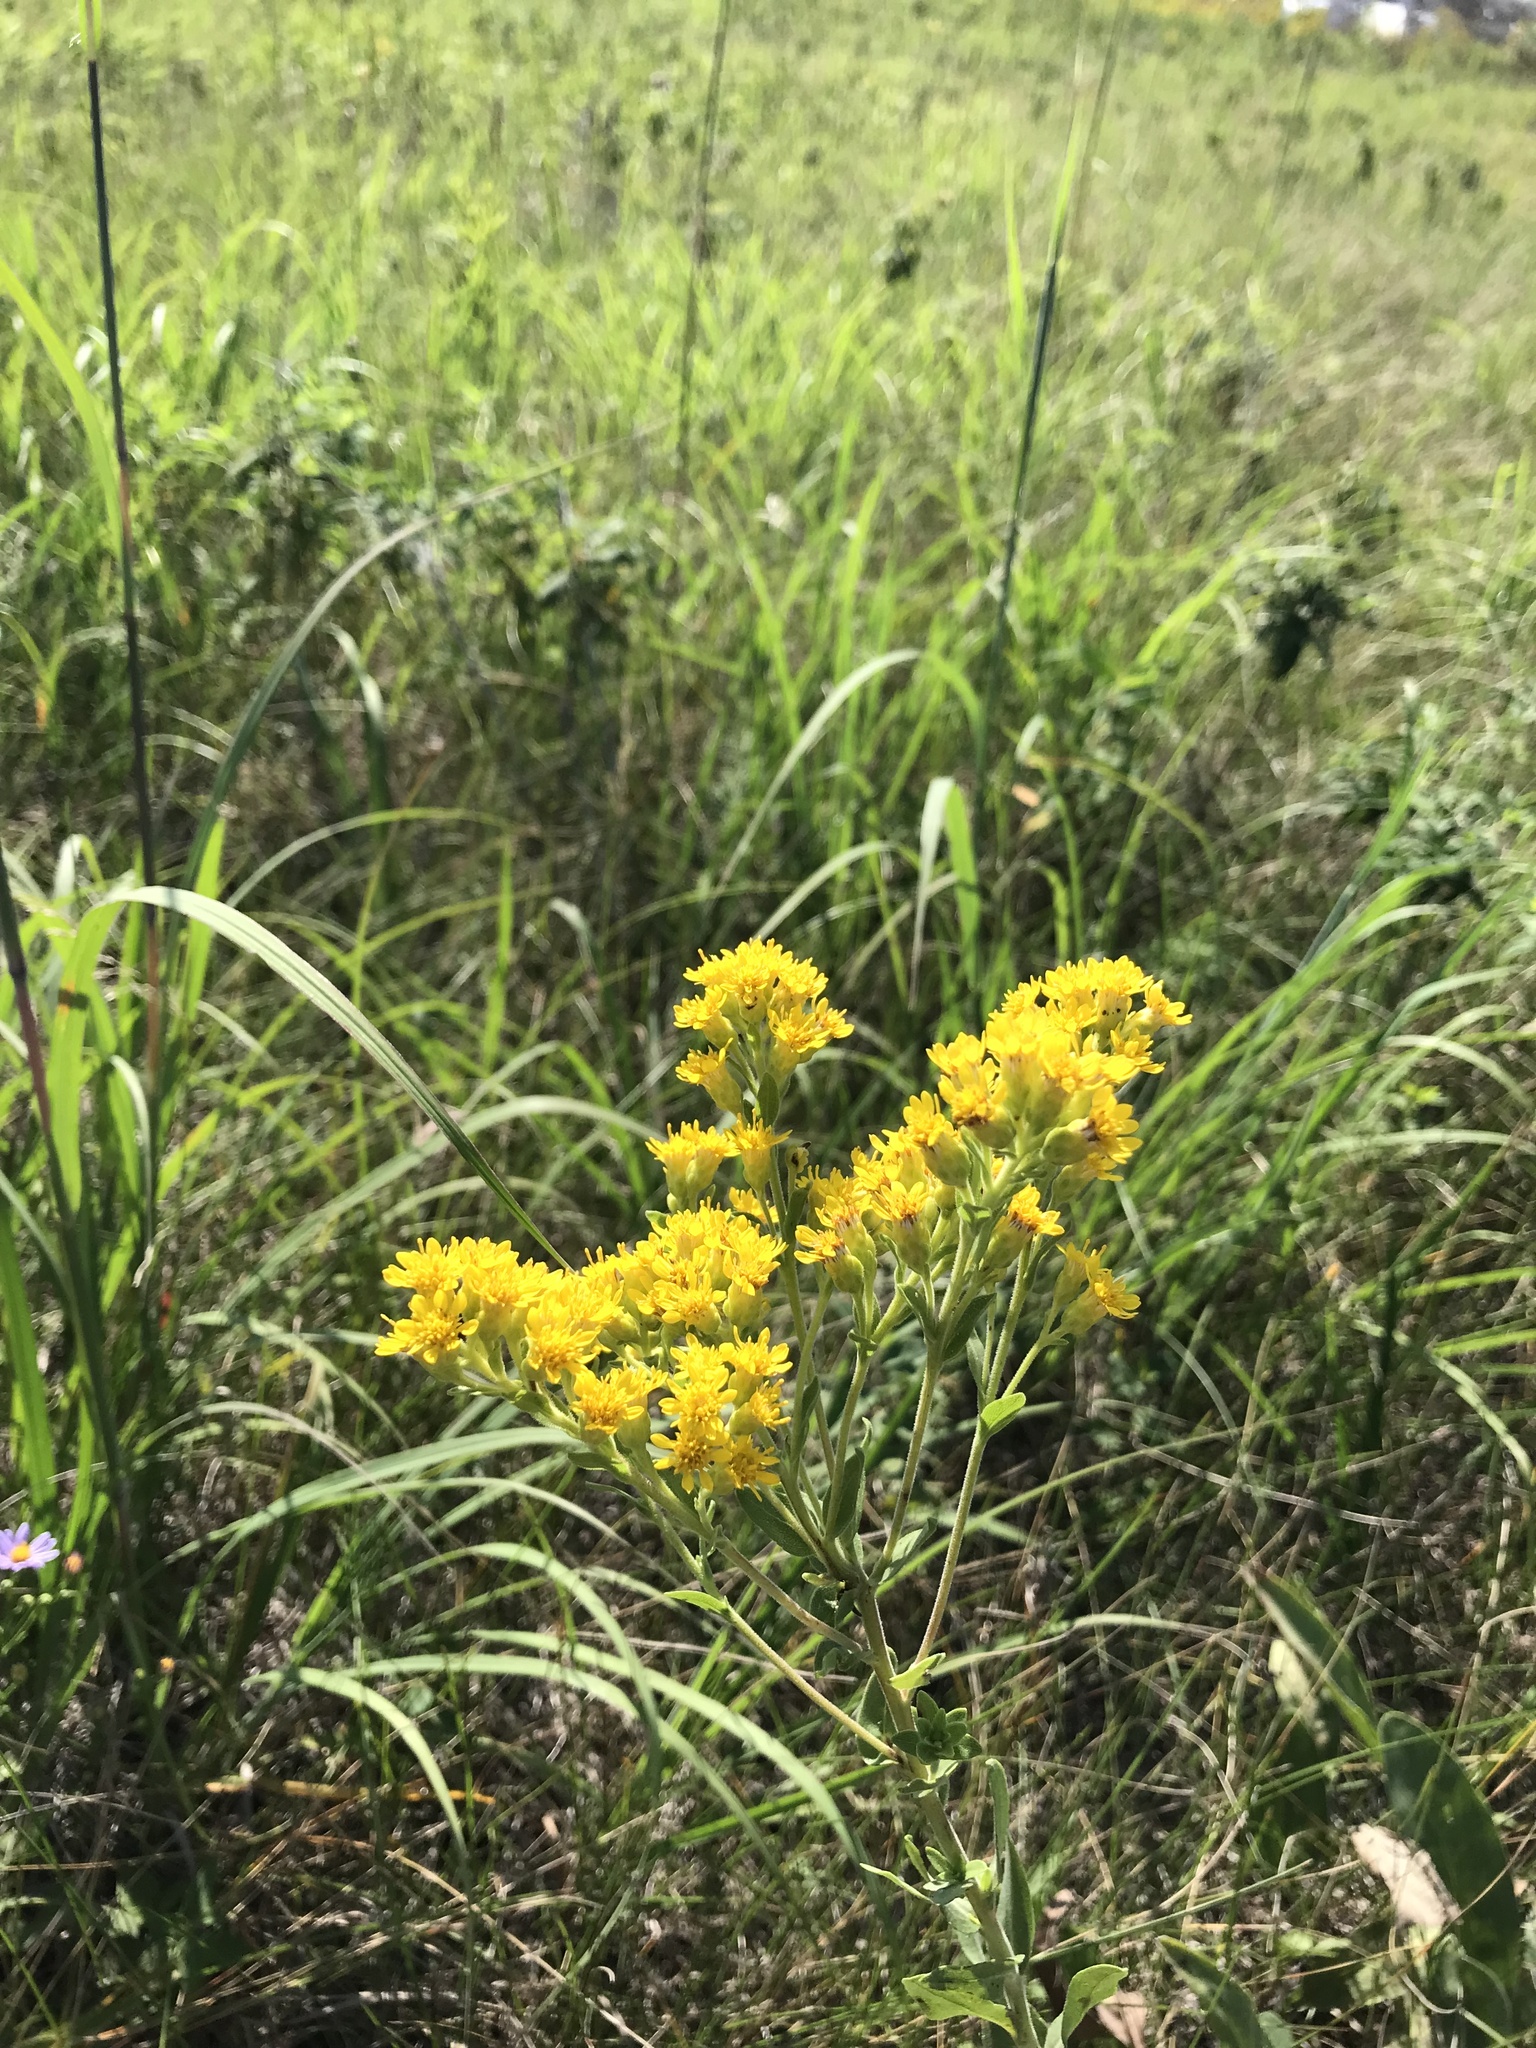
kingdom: Plantae
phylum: Tracheophyta
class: Magnoliopsida
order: Asterales
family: Asteraceae
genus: Solidago
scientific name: Solidago rigida
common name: Rigid goldenrod
